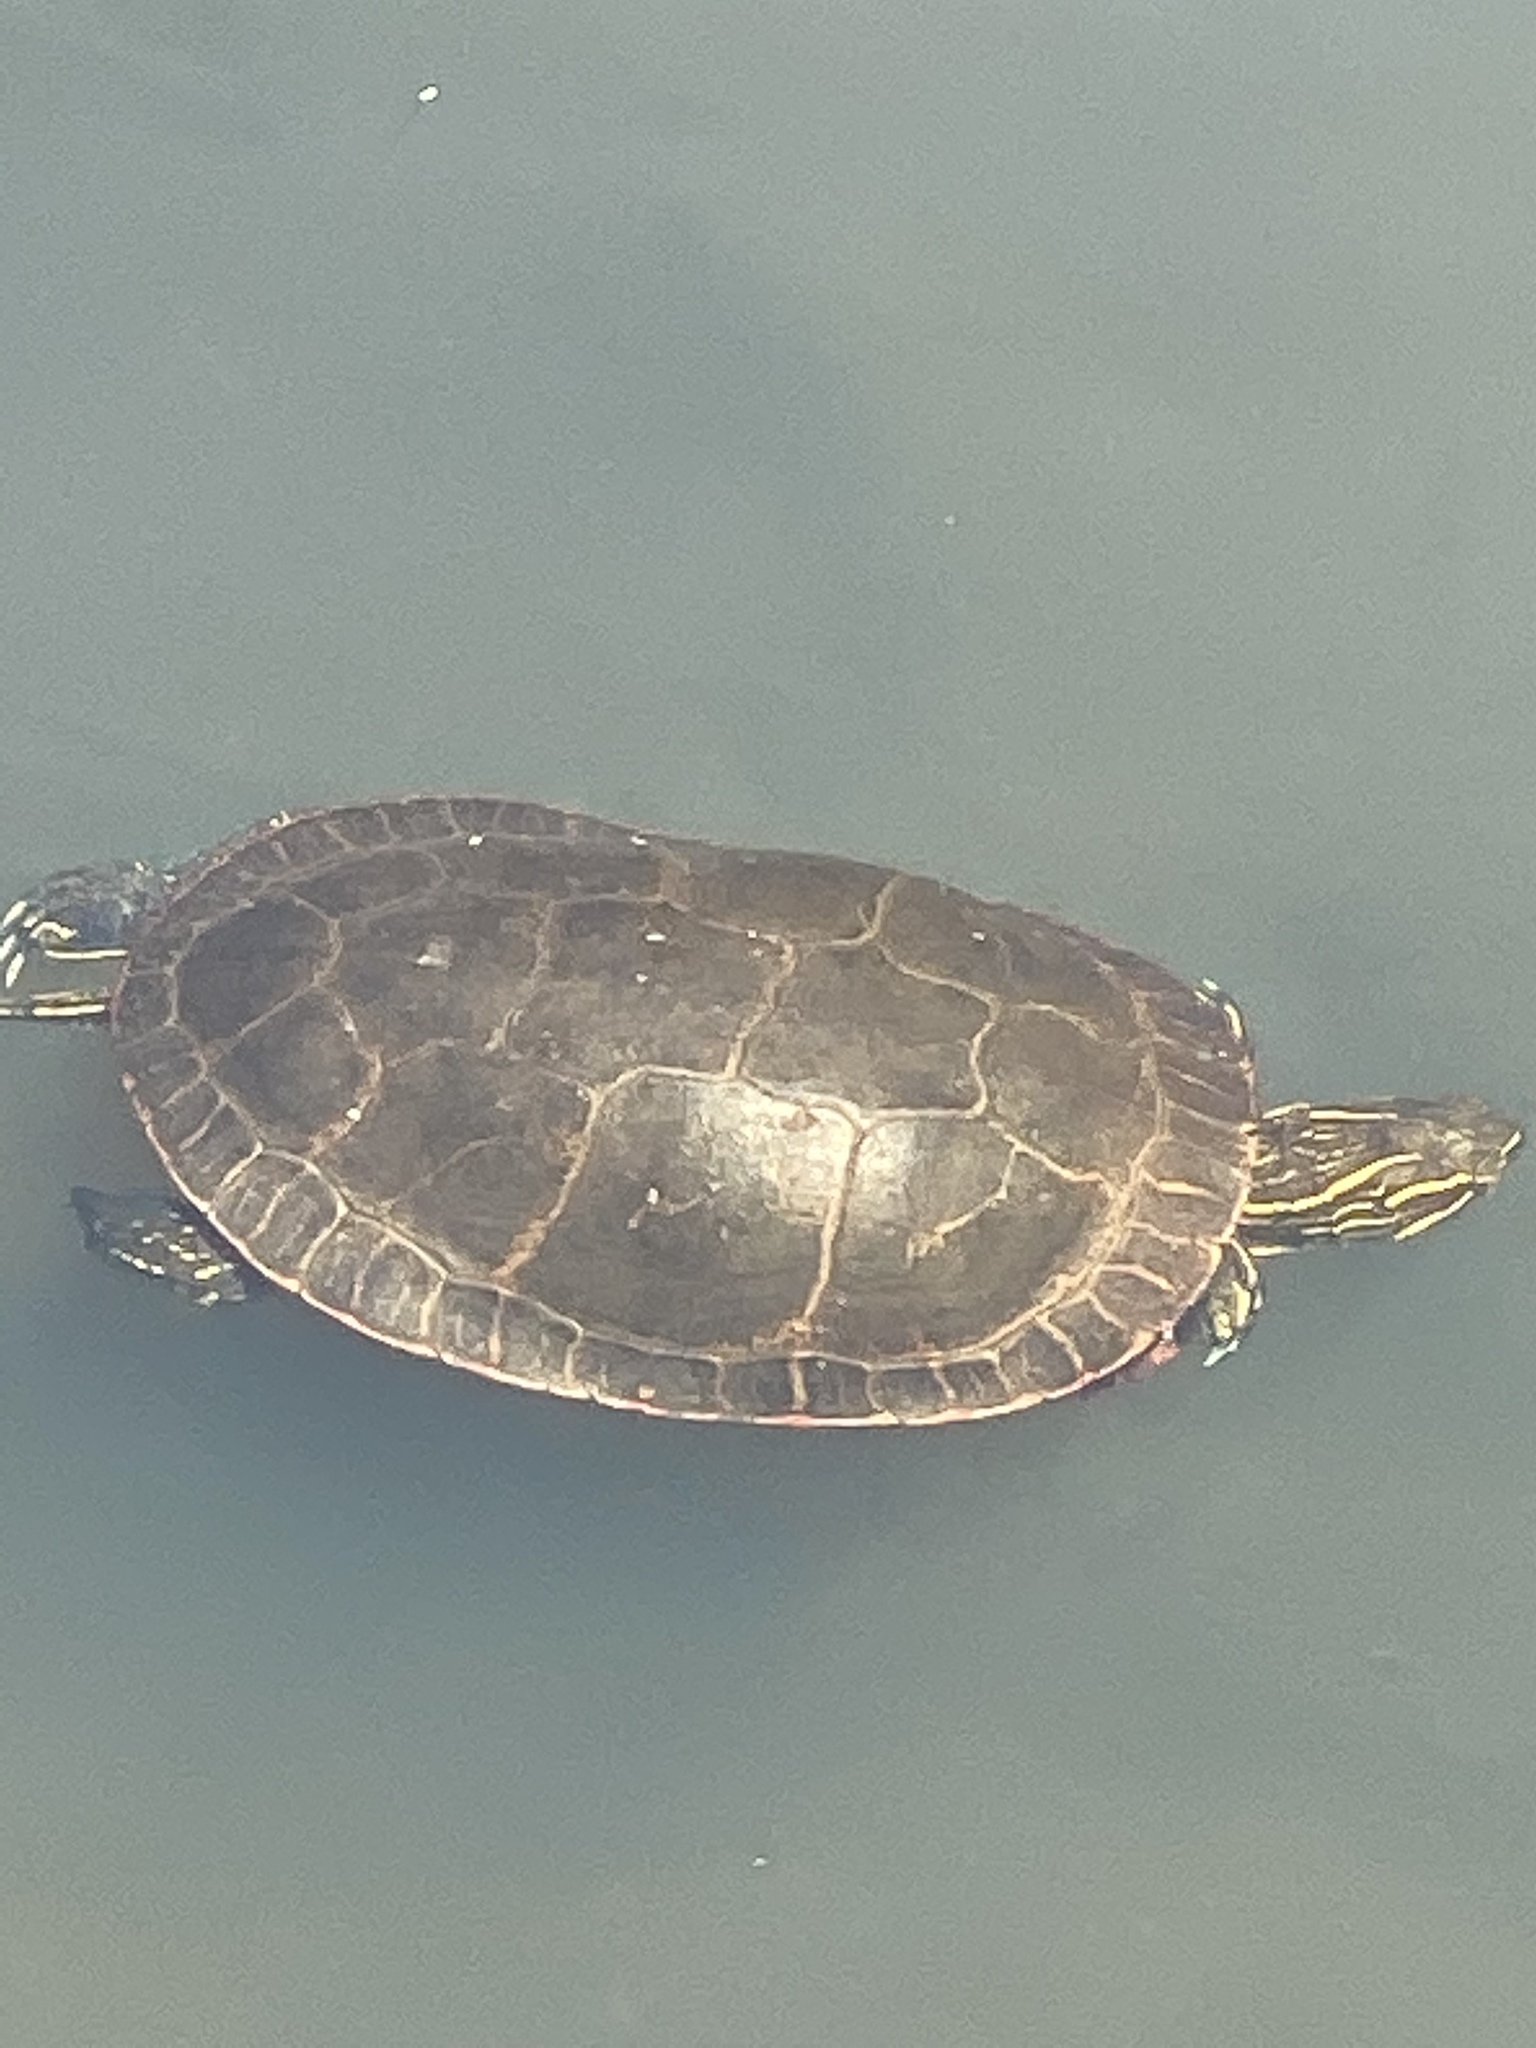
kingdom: Animalia
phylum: Chordata
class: Testudines
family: Emydidae
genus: Chrysemys
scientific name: Chrysemys picta
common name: Painted turtle
